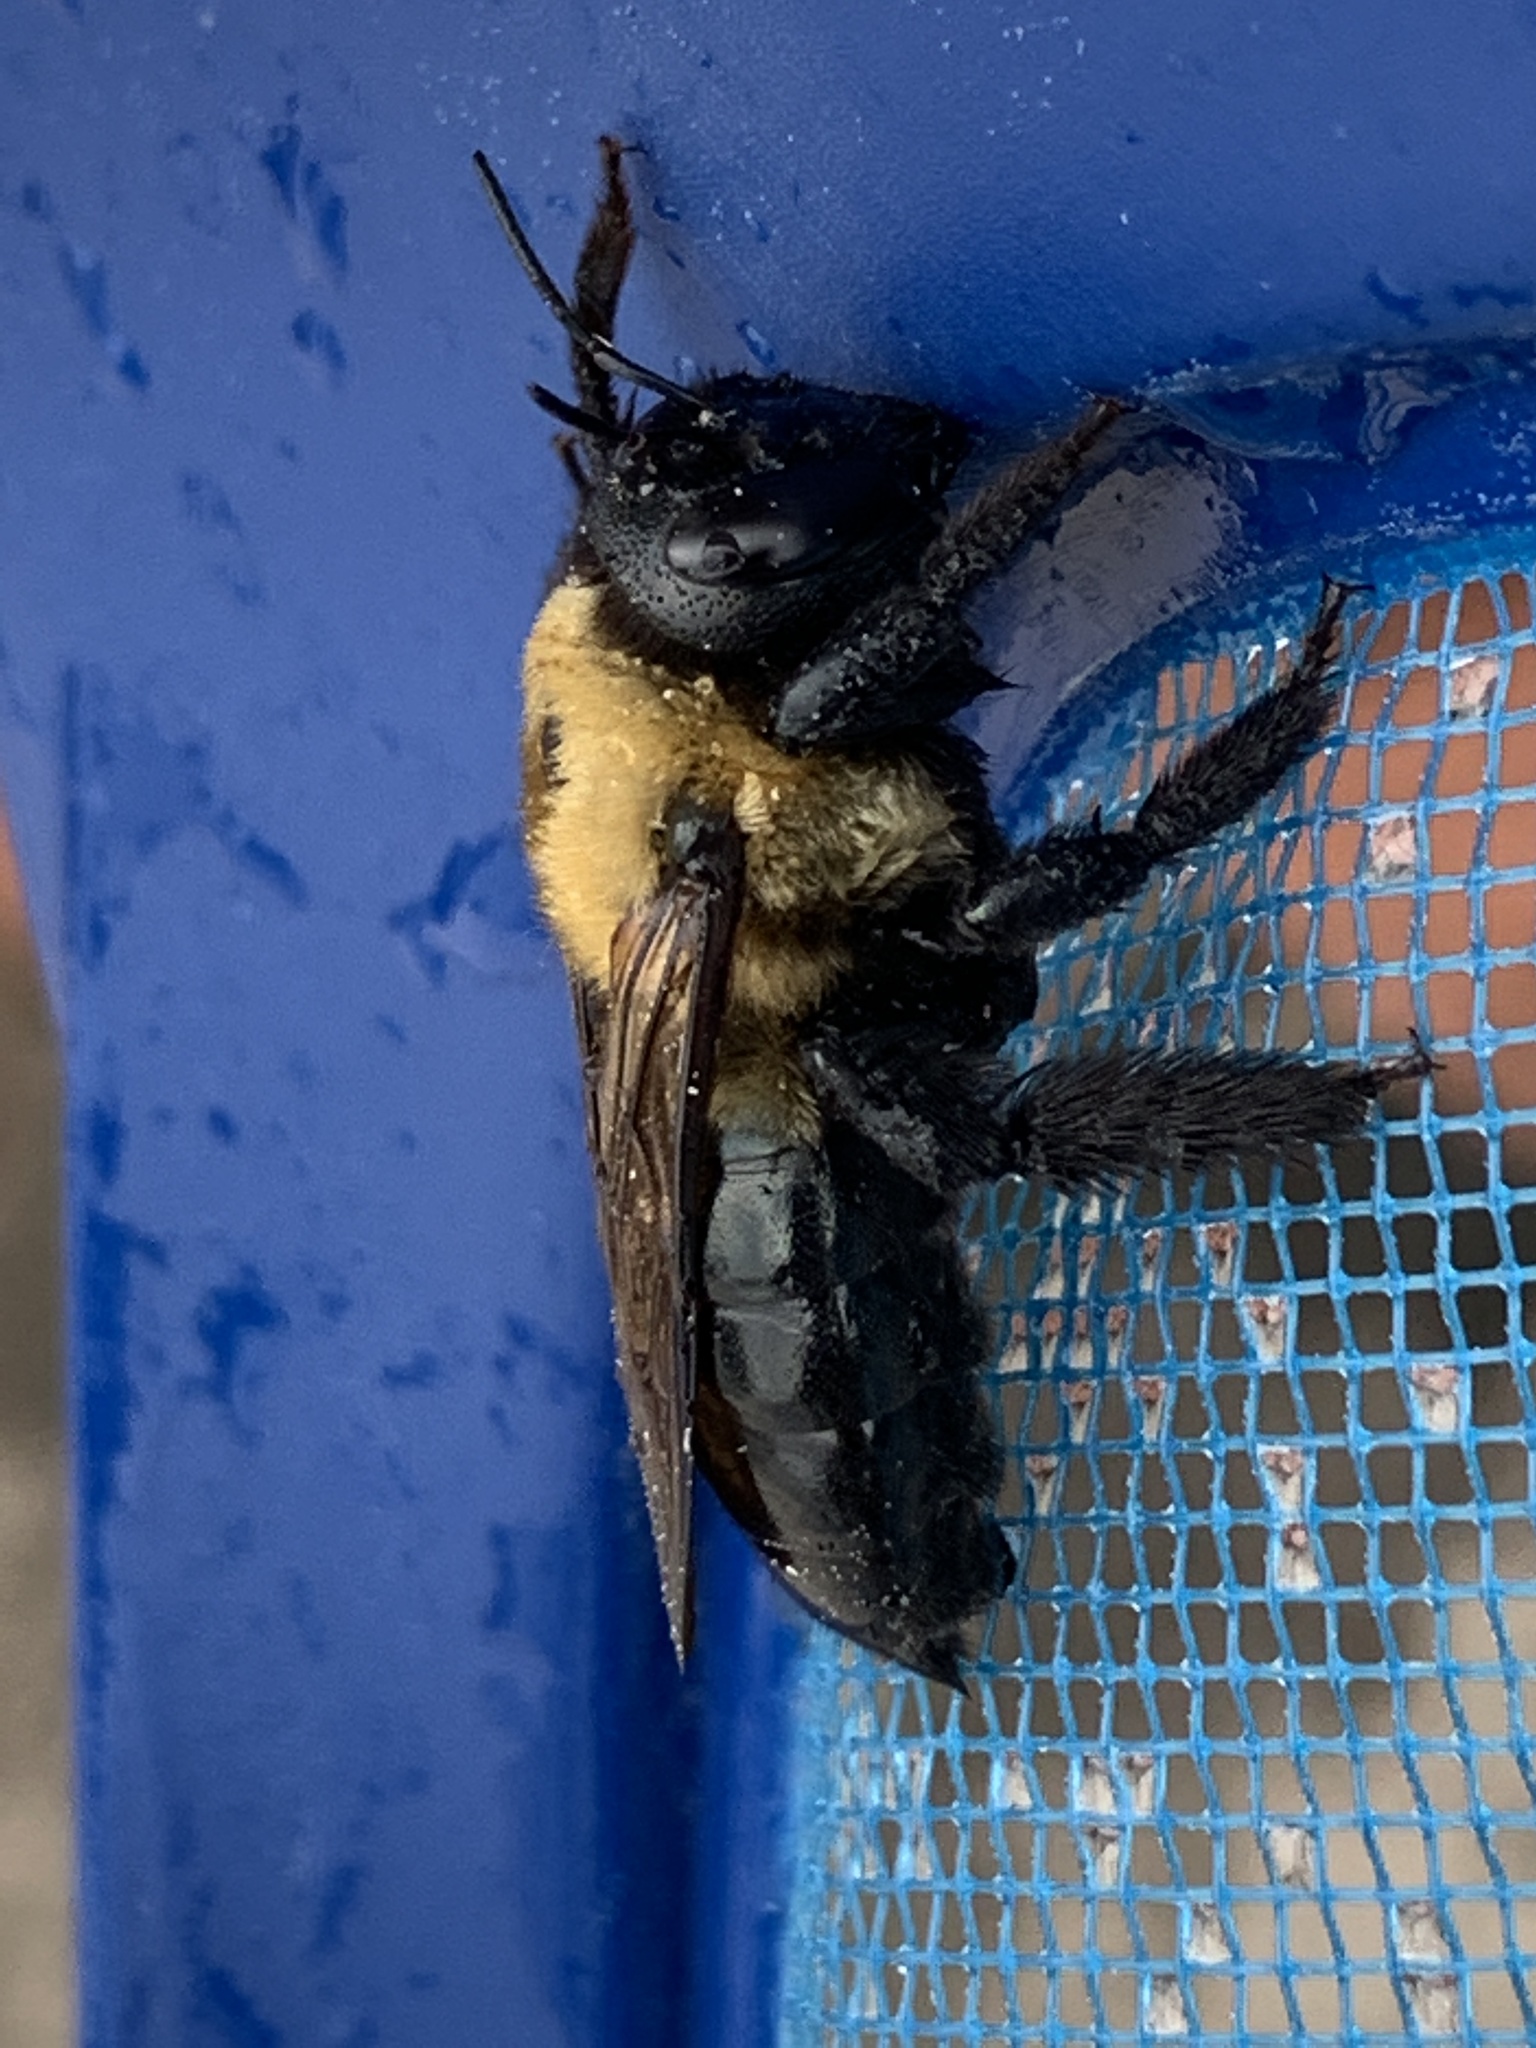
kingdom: Animalia
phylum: Arthropoda
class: Insecta
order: Hymenoptera
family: Apidae
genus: Xylocopa
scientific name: Xylocopa virginica
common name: Carpenter bee
